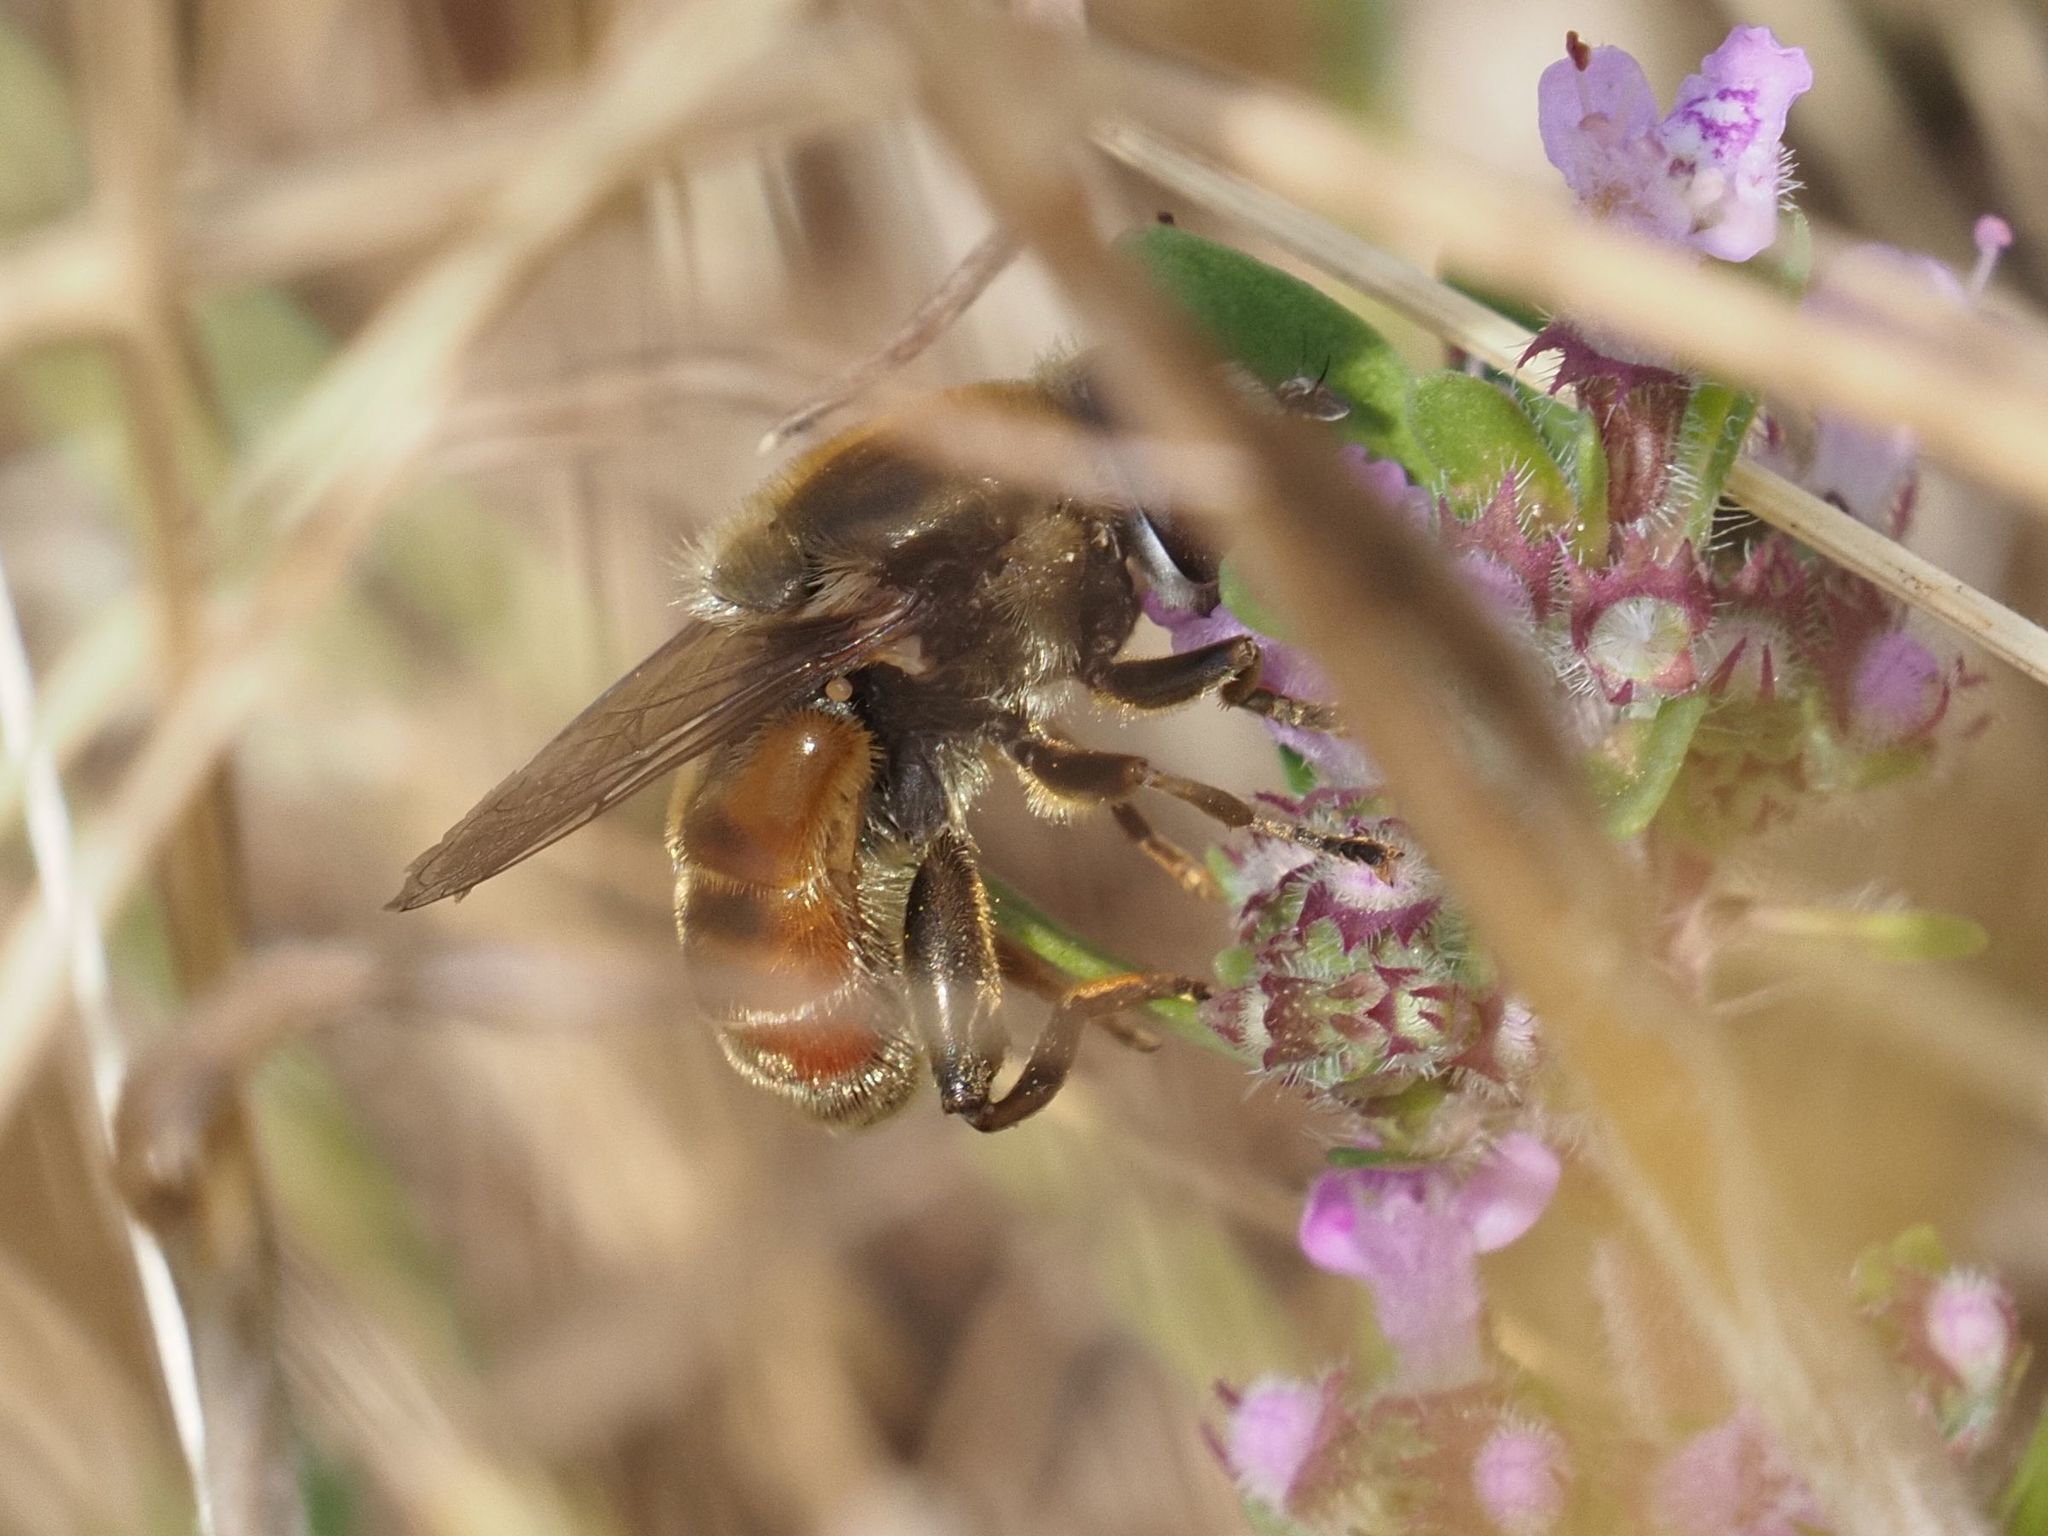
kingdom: Animalia
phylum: Arthropoda
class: Insecta
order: Diptera
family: Syrphidae
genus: Merodon
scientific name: Merodon albifrons
